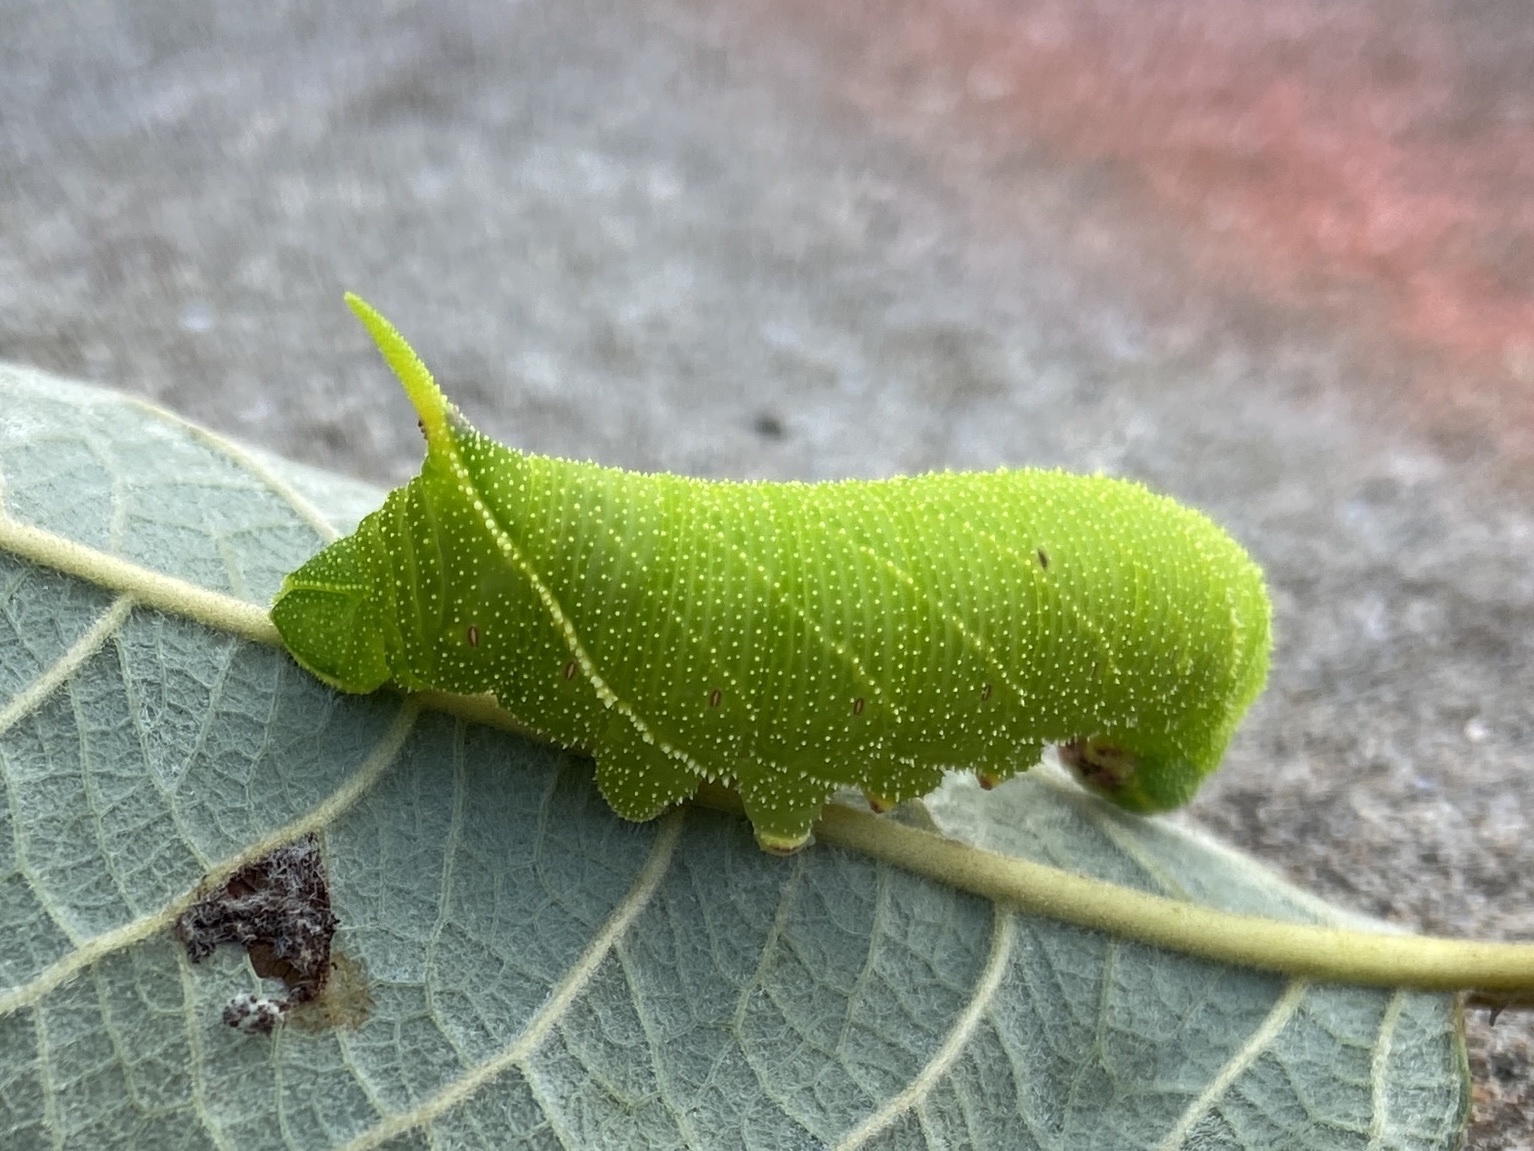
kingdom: Animalia
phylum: Arthropoda
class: Insecta
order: Lepidoptera
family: Sphingidae
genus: Laothoe
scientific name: Laothoe populi
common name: Poplar hawk-moth
